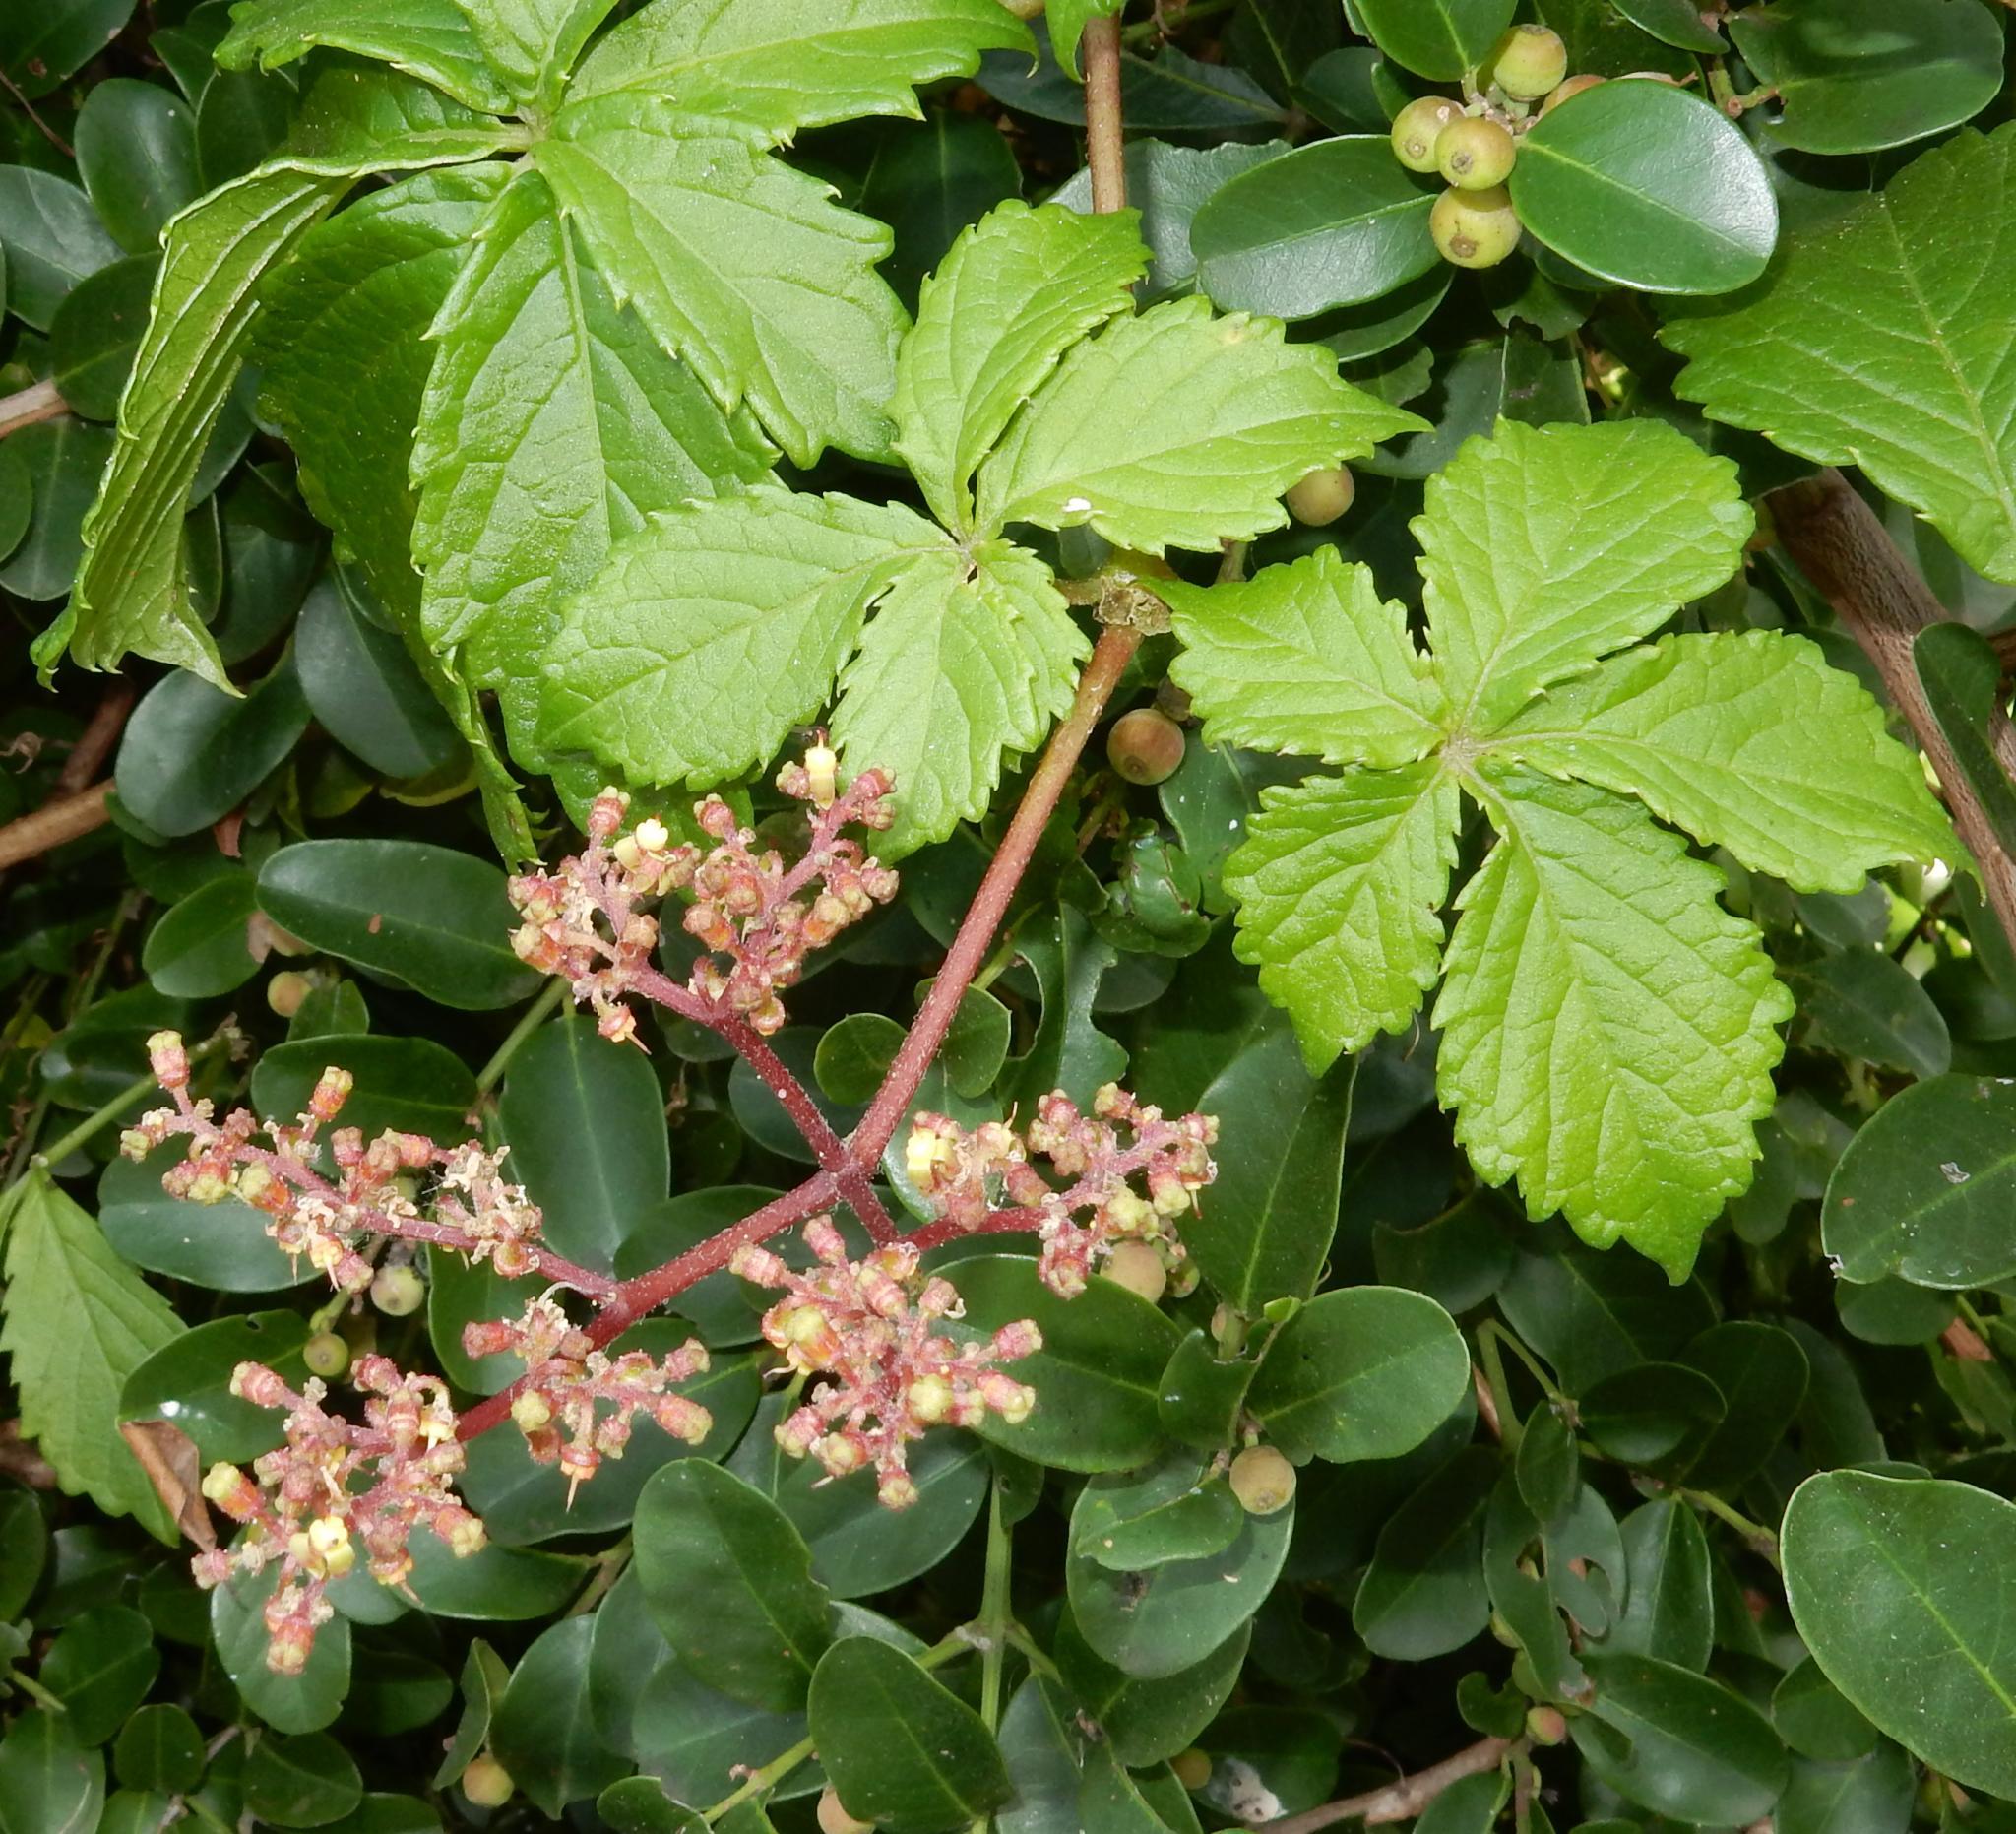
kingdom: Plantae
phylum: Tracheophyta
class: Magnoliopsida
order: Vitales
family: Vitaceae
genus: Cyphostemma
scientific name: Cyphostemma cirrhosum
